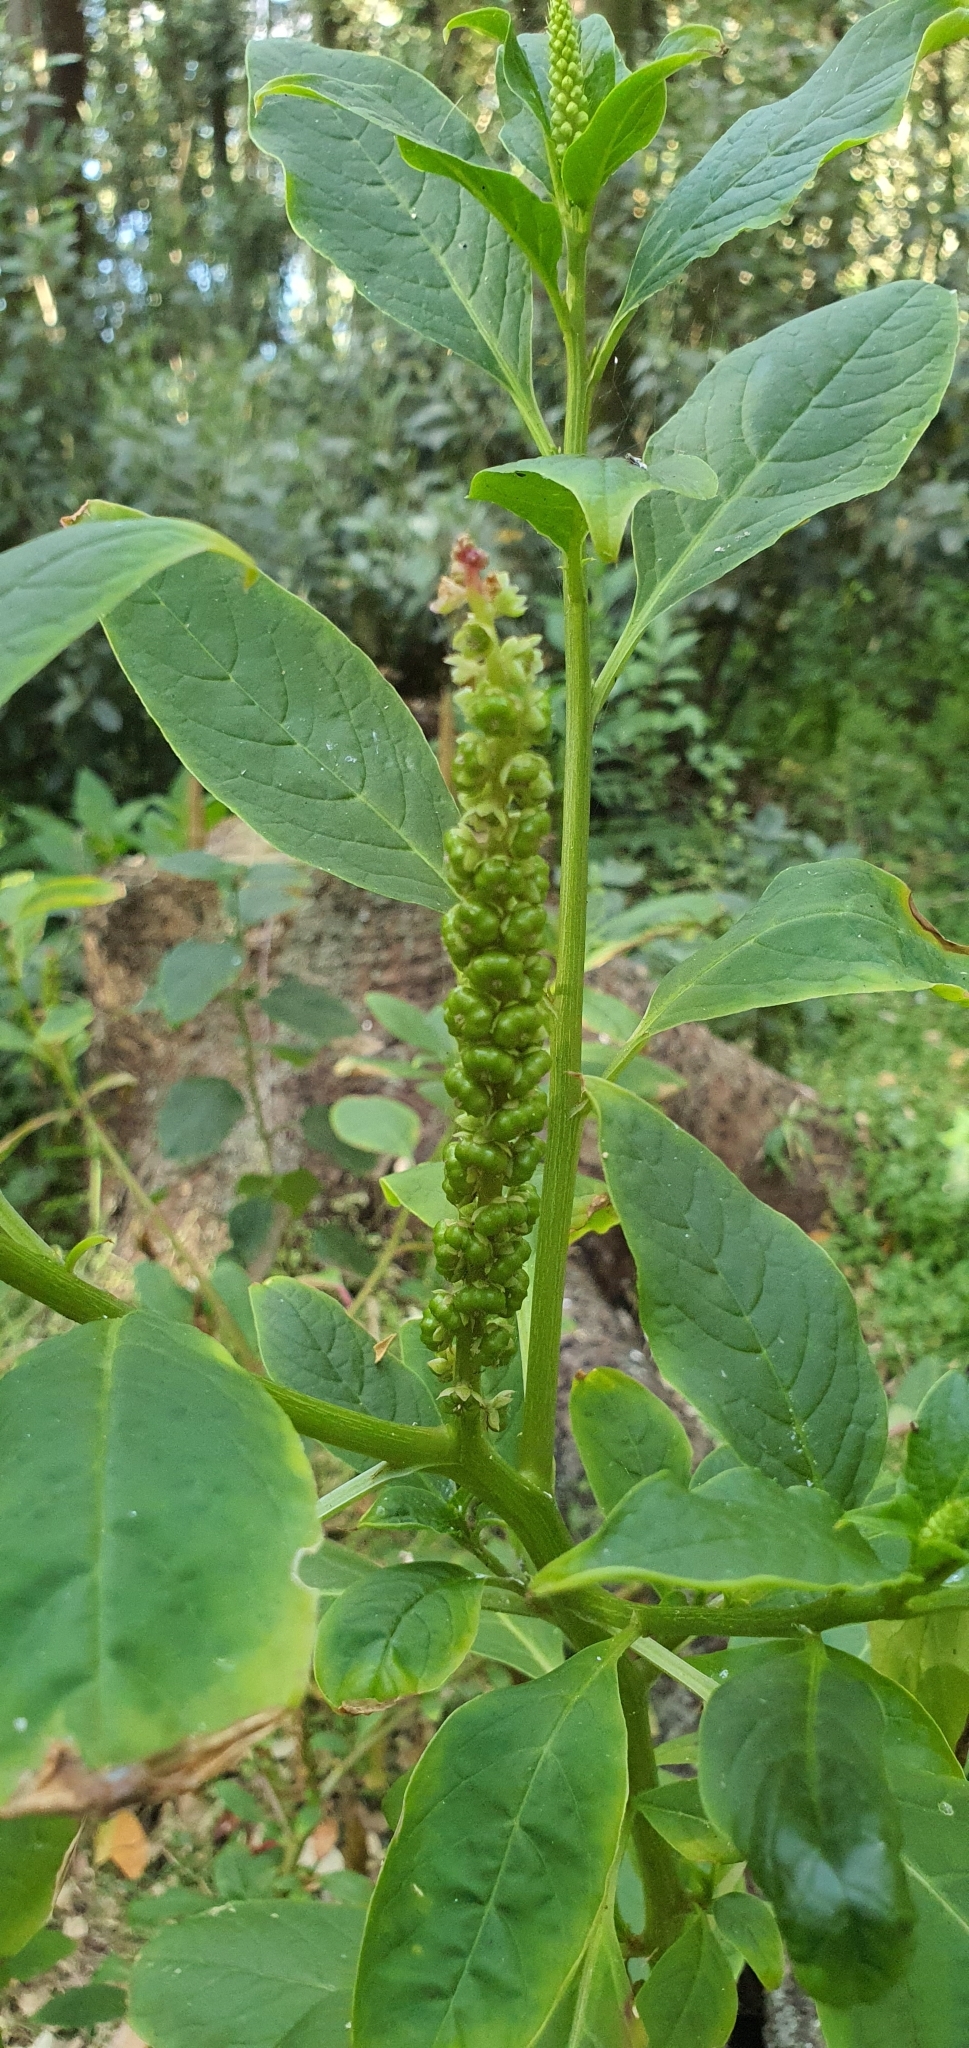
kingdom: Plantae
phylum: Tracheophyta
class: Magnoliopsida
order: Caryophyllales
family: Phytolaccaceae
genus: Phytolacca
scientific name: Phytolacca icosandra
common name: Button pokeweed
